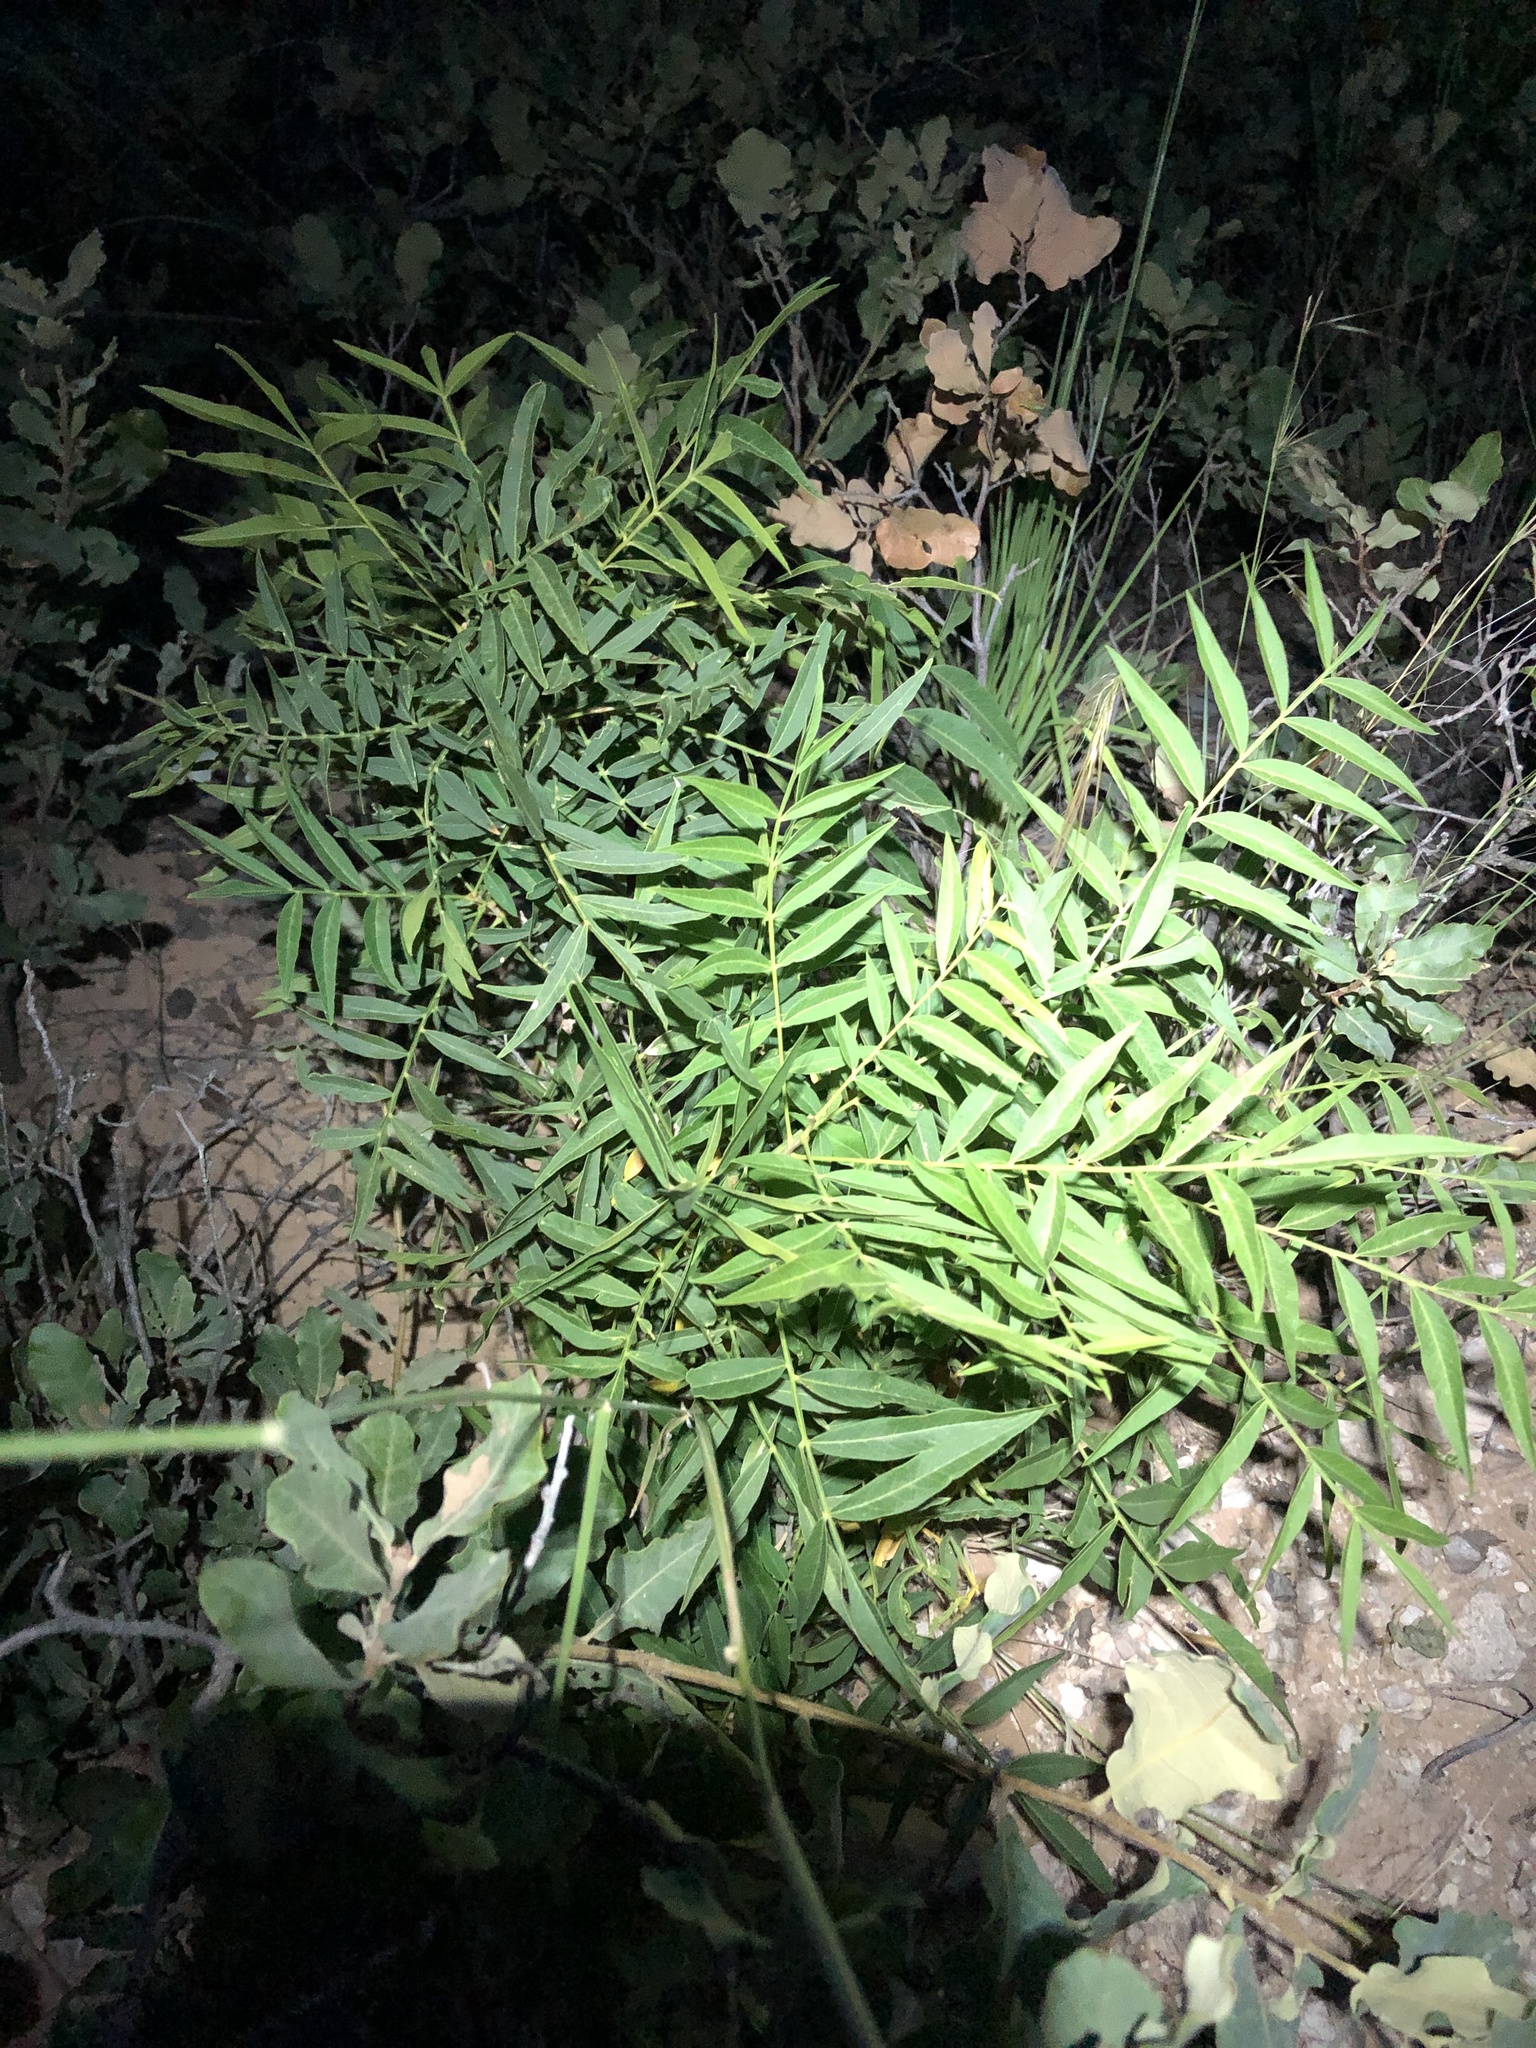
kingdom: Plantae
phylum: Tracheophyta
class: Magnoliopsida
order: Sapindales
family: Sapindaceae
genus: Sapindus
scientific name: Sapindus drummondii
